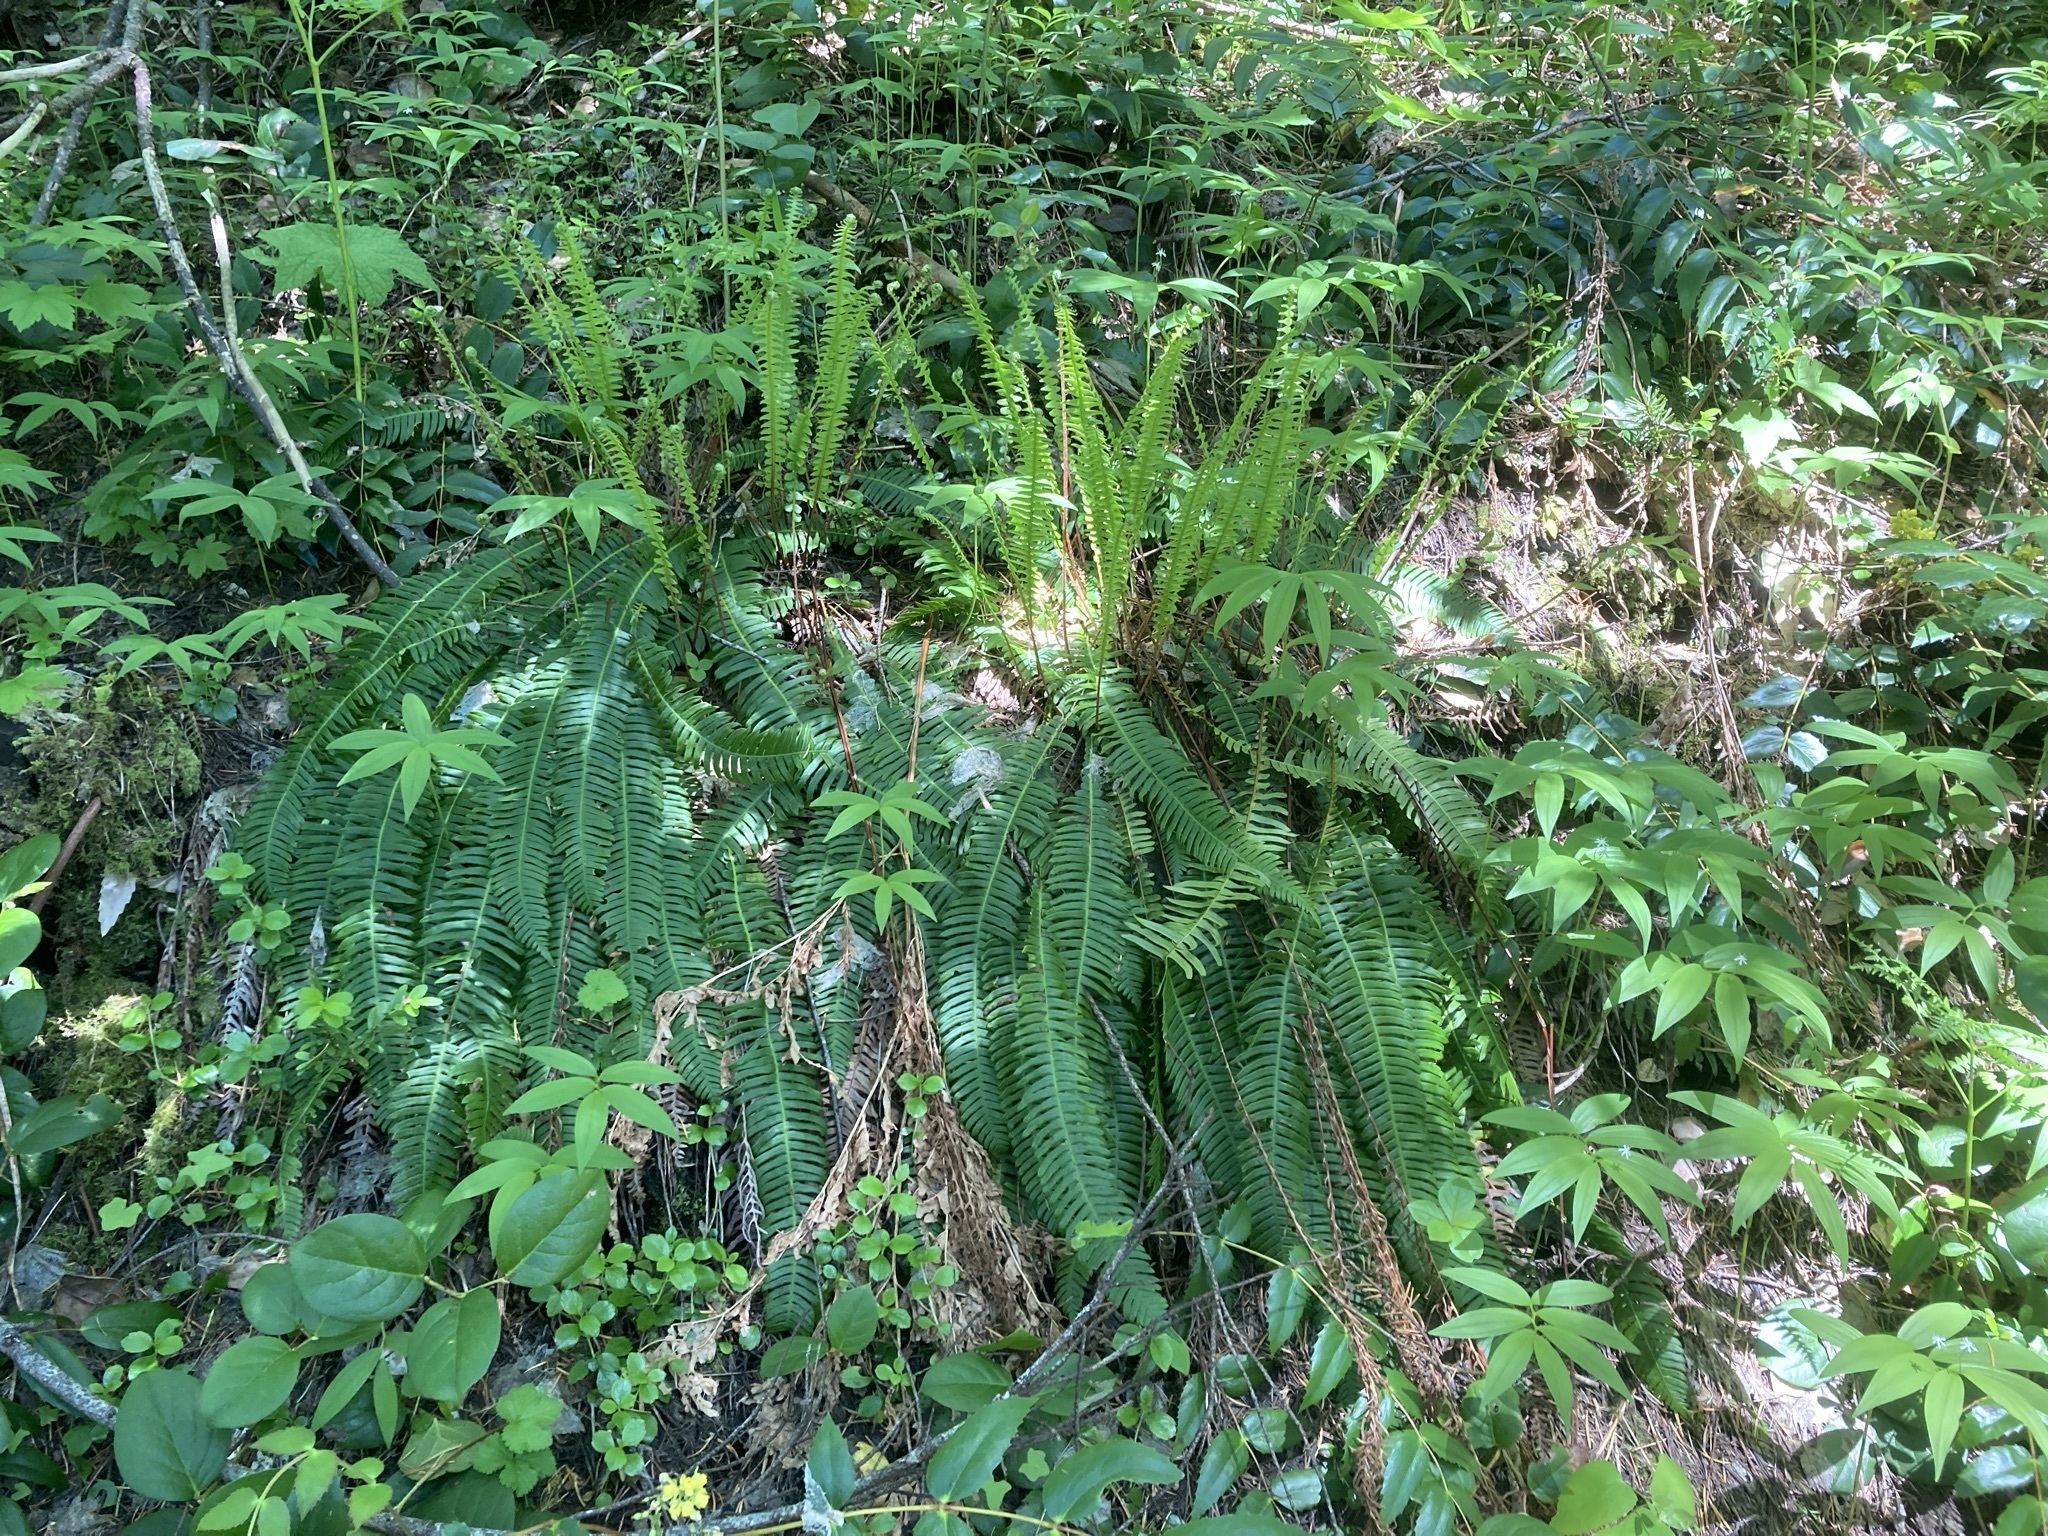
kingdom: Plantae
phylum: Tracheophyta
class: Polypodiopsida
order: Polypodiales
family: Blechnaceae
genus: Struthiopteris
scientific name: Struthiopteris spicant
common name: Deer fern
